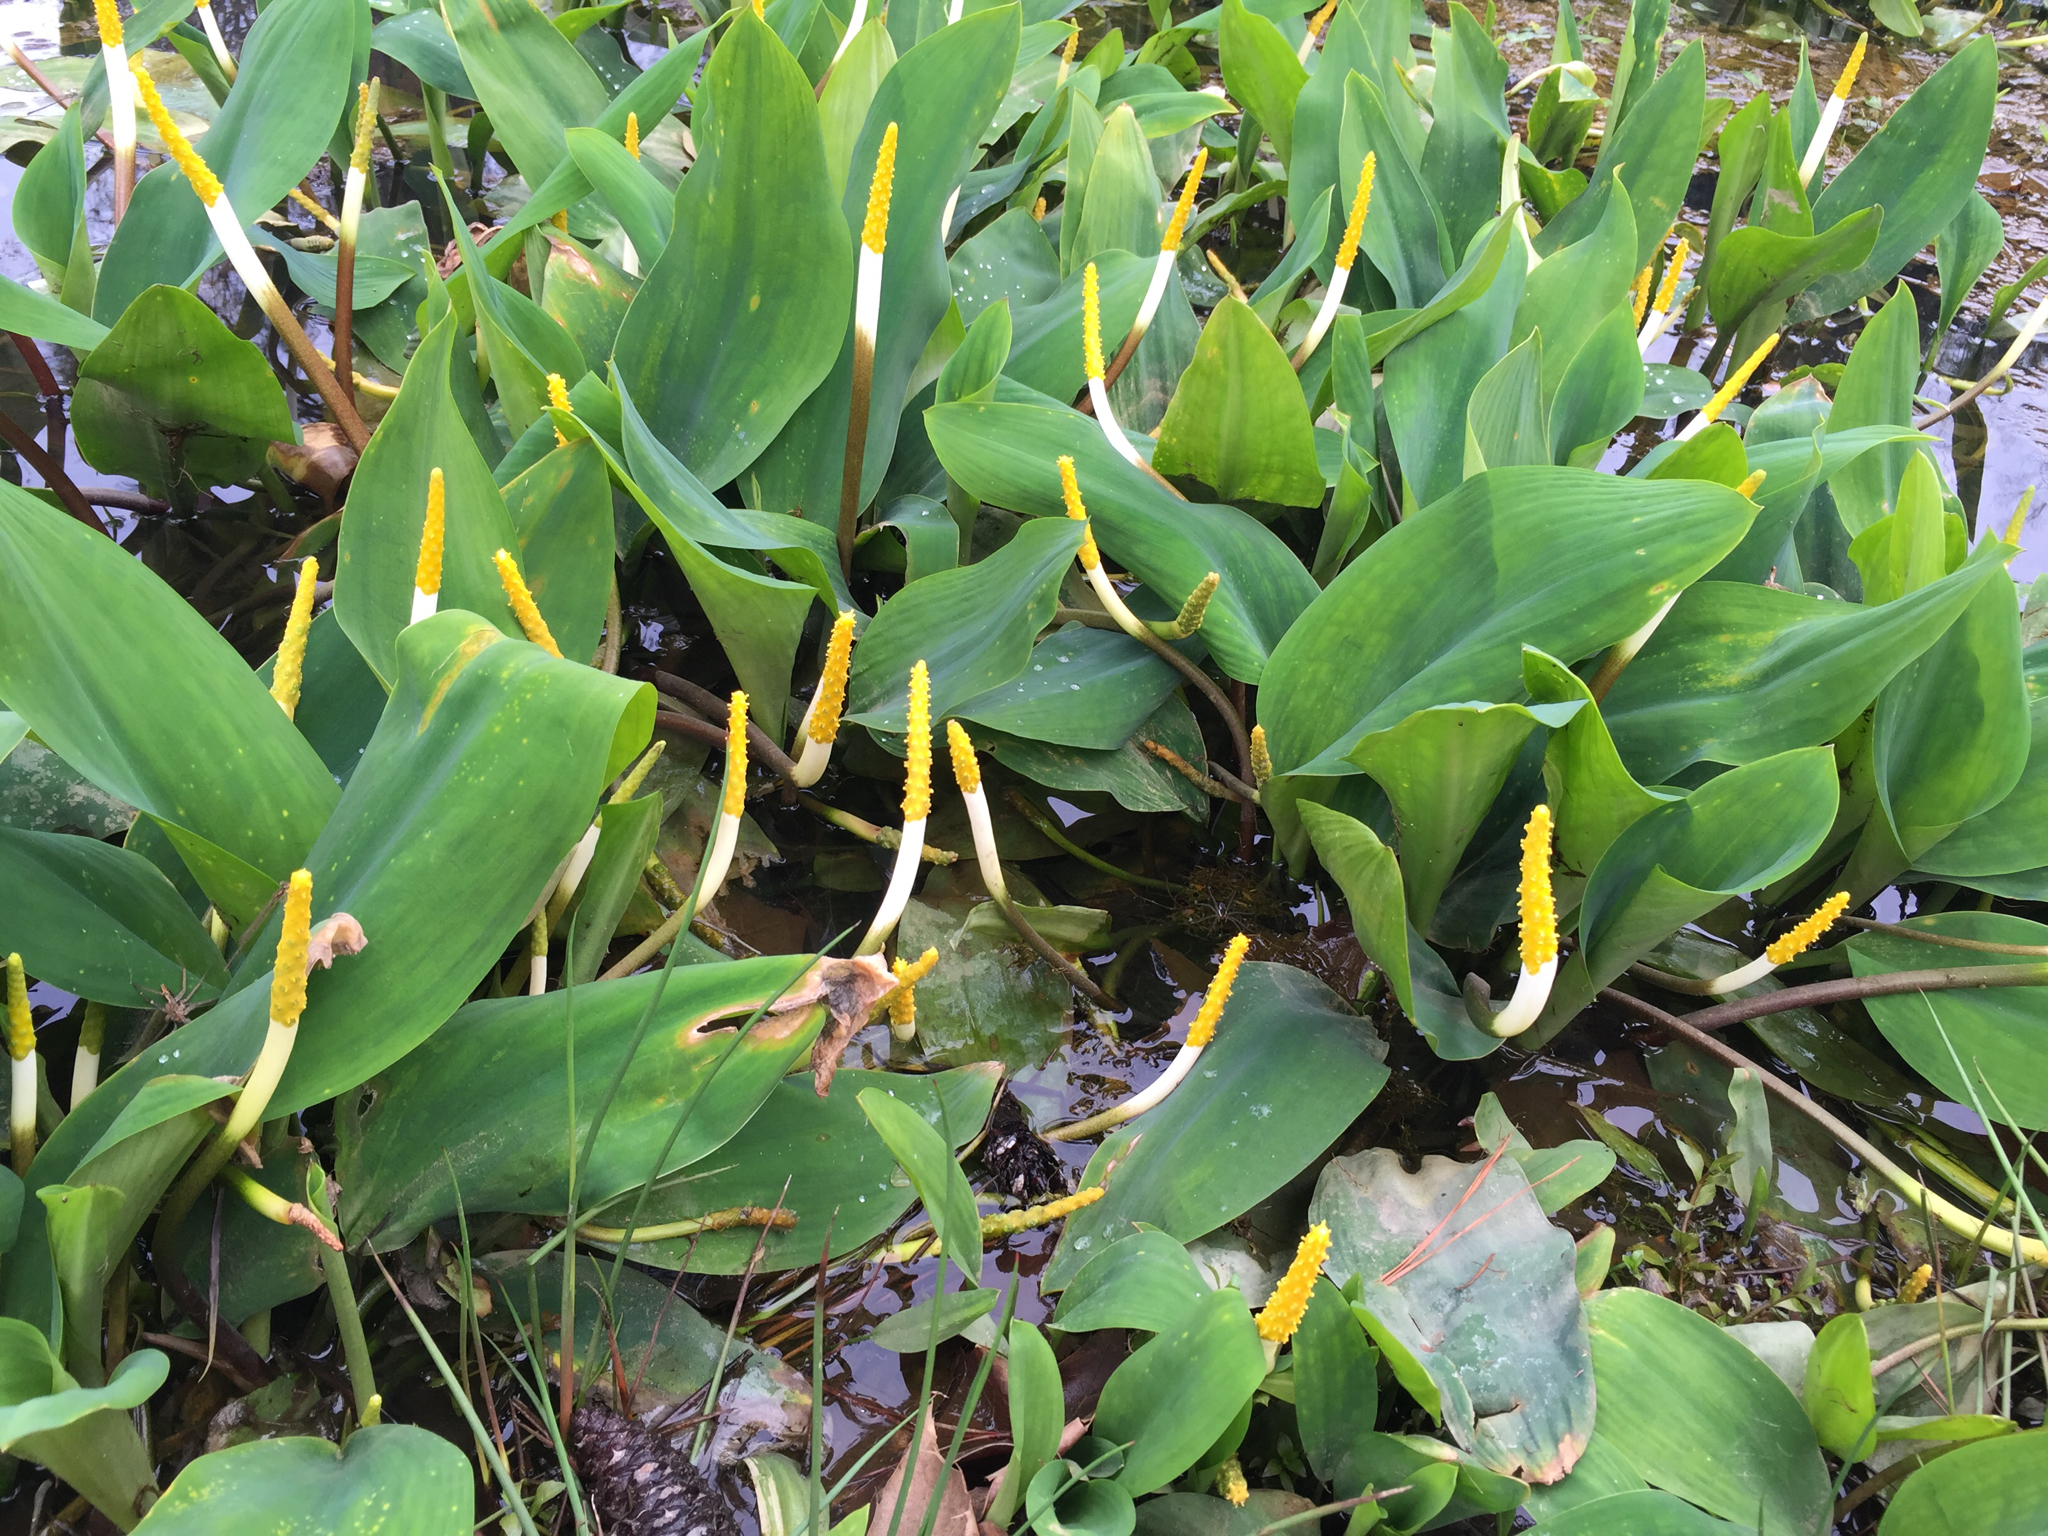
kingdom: Plantae
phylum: Tracheophyta
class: Liliopsida
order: Alismatales
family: Araceae
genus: Orontium
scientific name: Orontium aquaticum
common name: Golden-club
